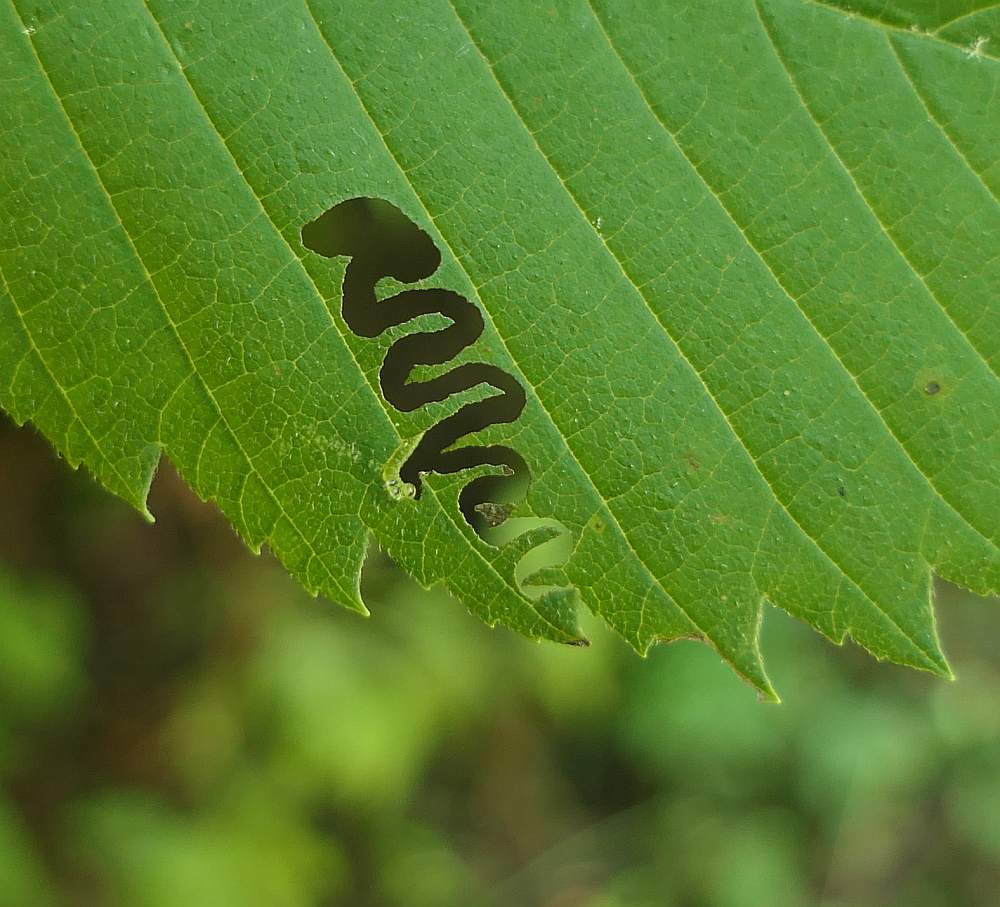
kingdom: Animalia
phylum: Arthropoda
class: Insecta
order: Hymenoptera
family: Argidae
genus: Aproceros
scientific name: Aproceros leucopoda
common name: Zig-zag elm sawfly
